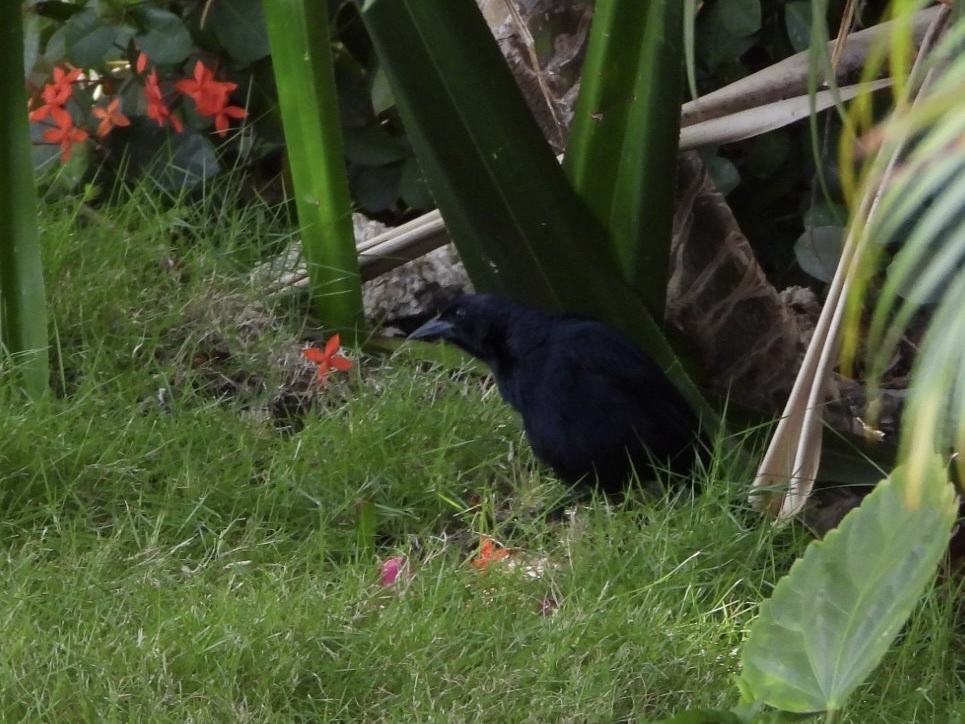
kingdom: Animalia
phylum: Chordata
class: Aves
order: Passeriformes
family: Icteridae
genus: Dives
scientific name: Dives dives
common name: Melodious blackbird
